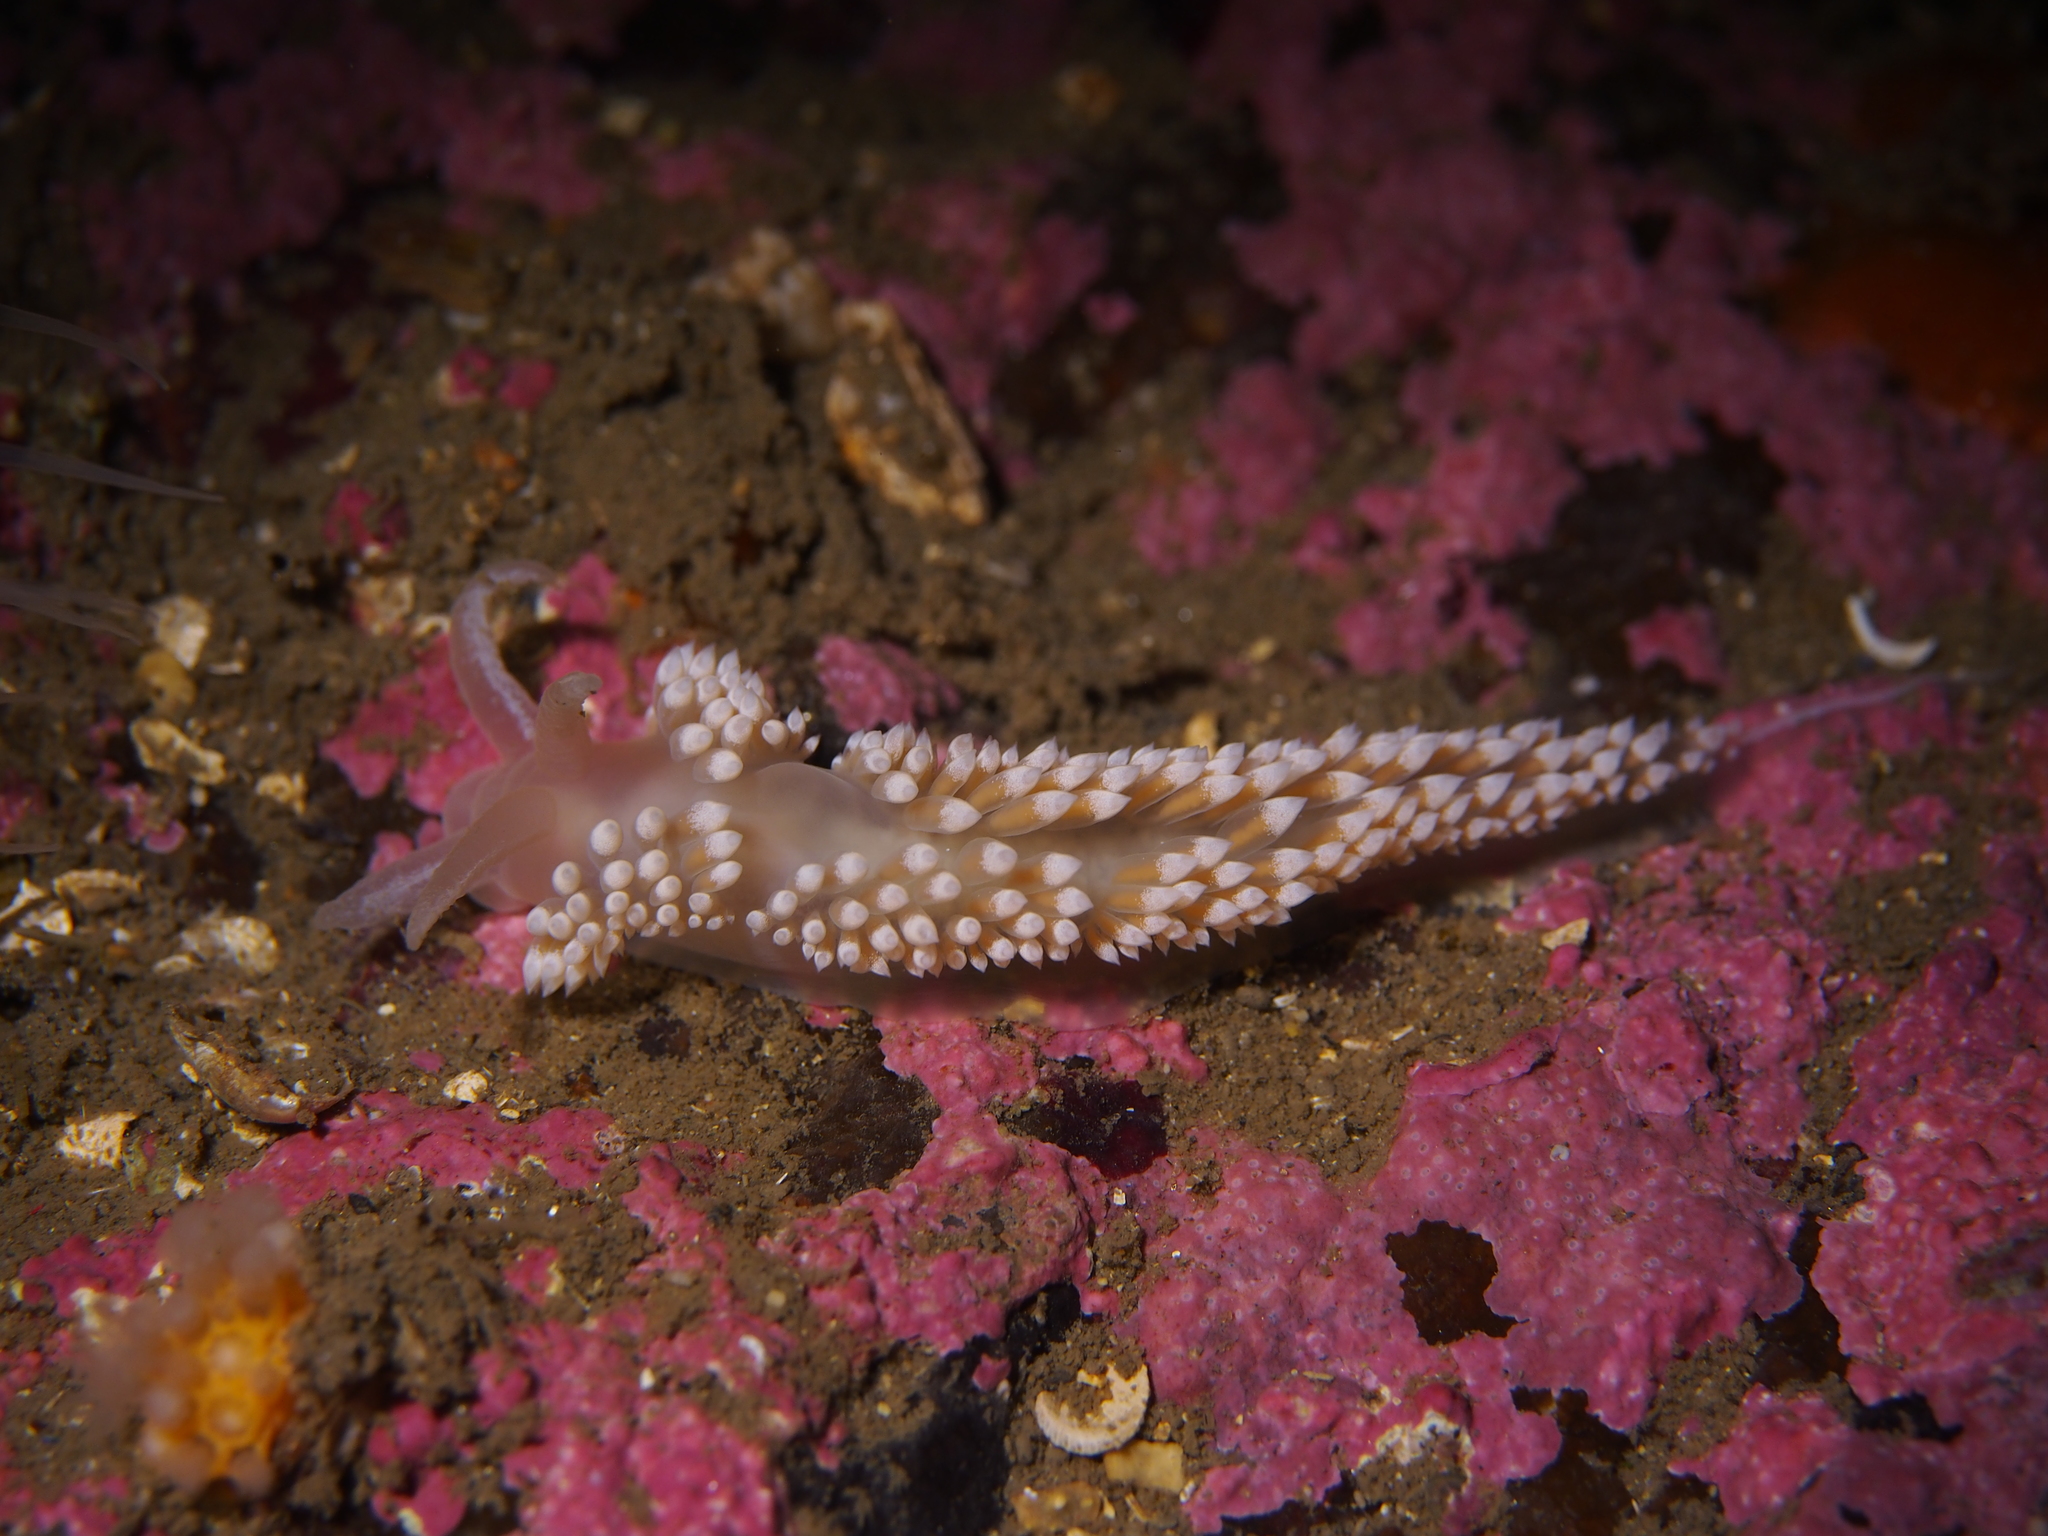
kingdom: Animalia
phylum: Mollusca
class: Gastropoda
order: Nudibranchia
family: Coryphellidae
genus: Coryphella
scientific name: Coryphella verrucosa
